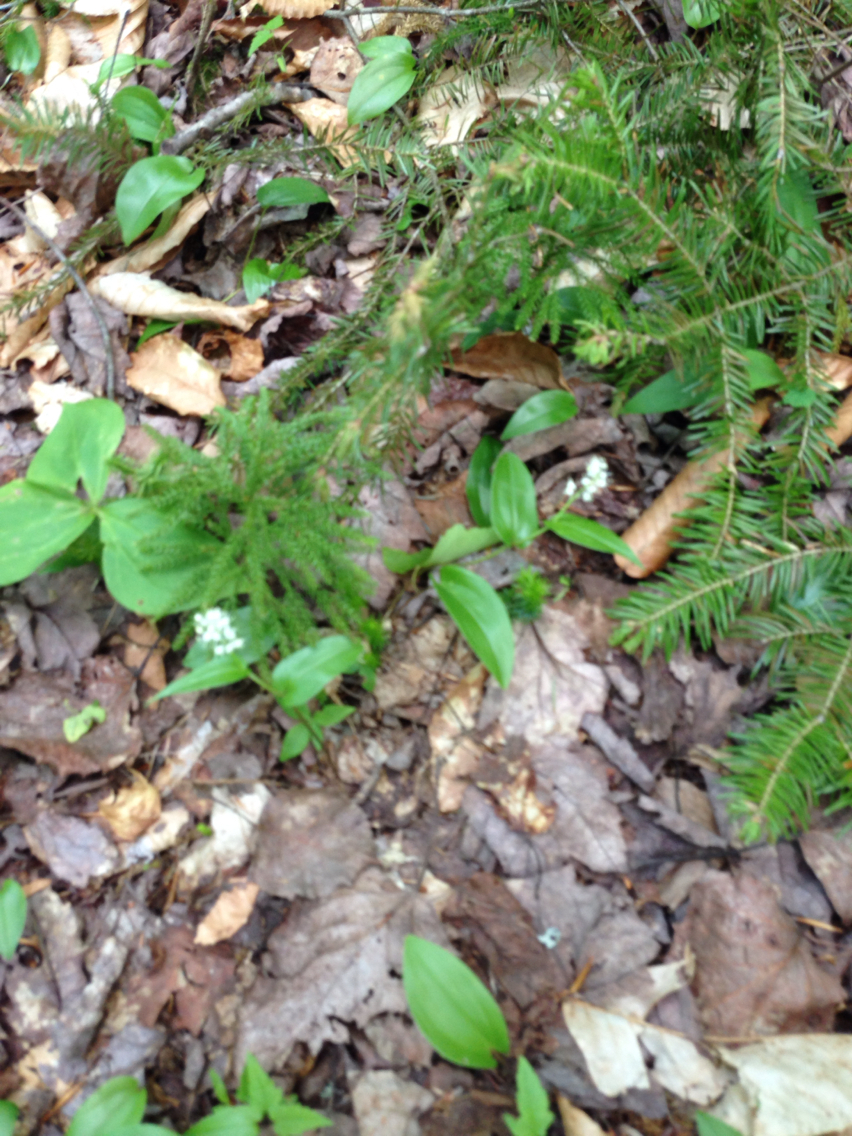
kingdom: Plantae
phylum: Tracheophyta
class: Liliopsida
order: Asparagales
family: Asparagaceae
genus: Maianthemum
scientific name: Maianthemum canadense
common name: False lily-of-the-valley
